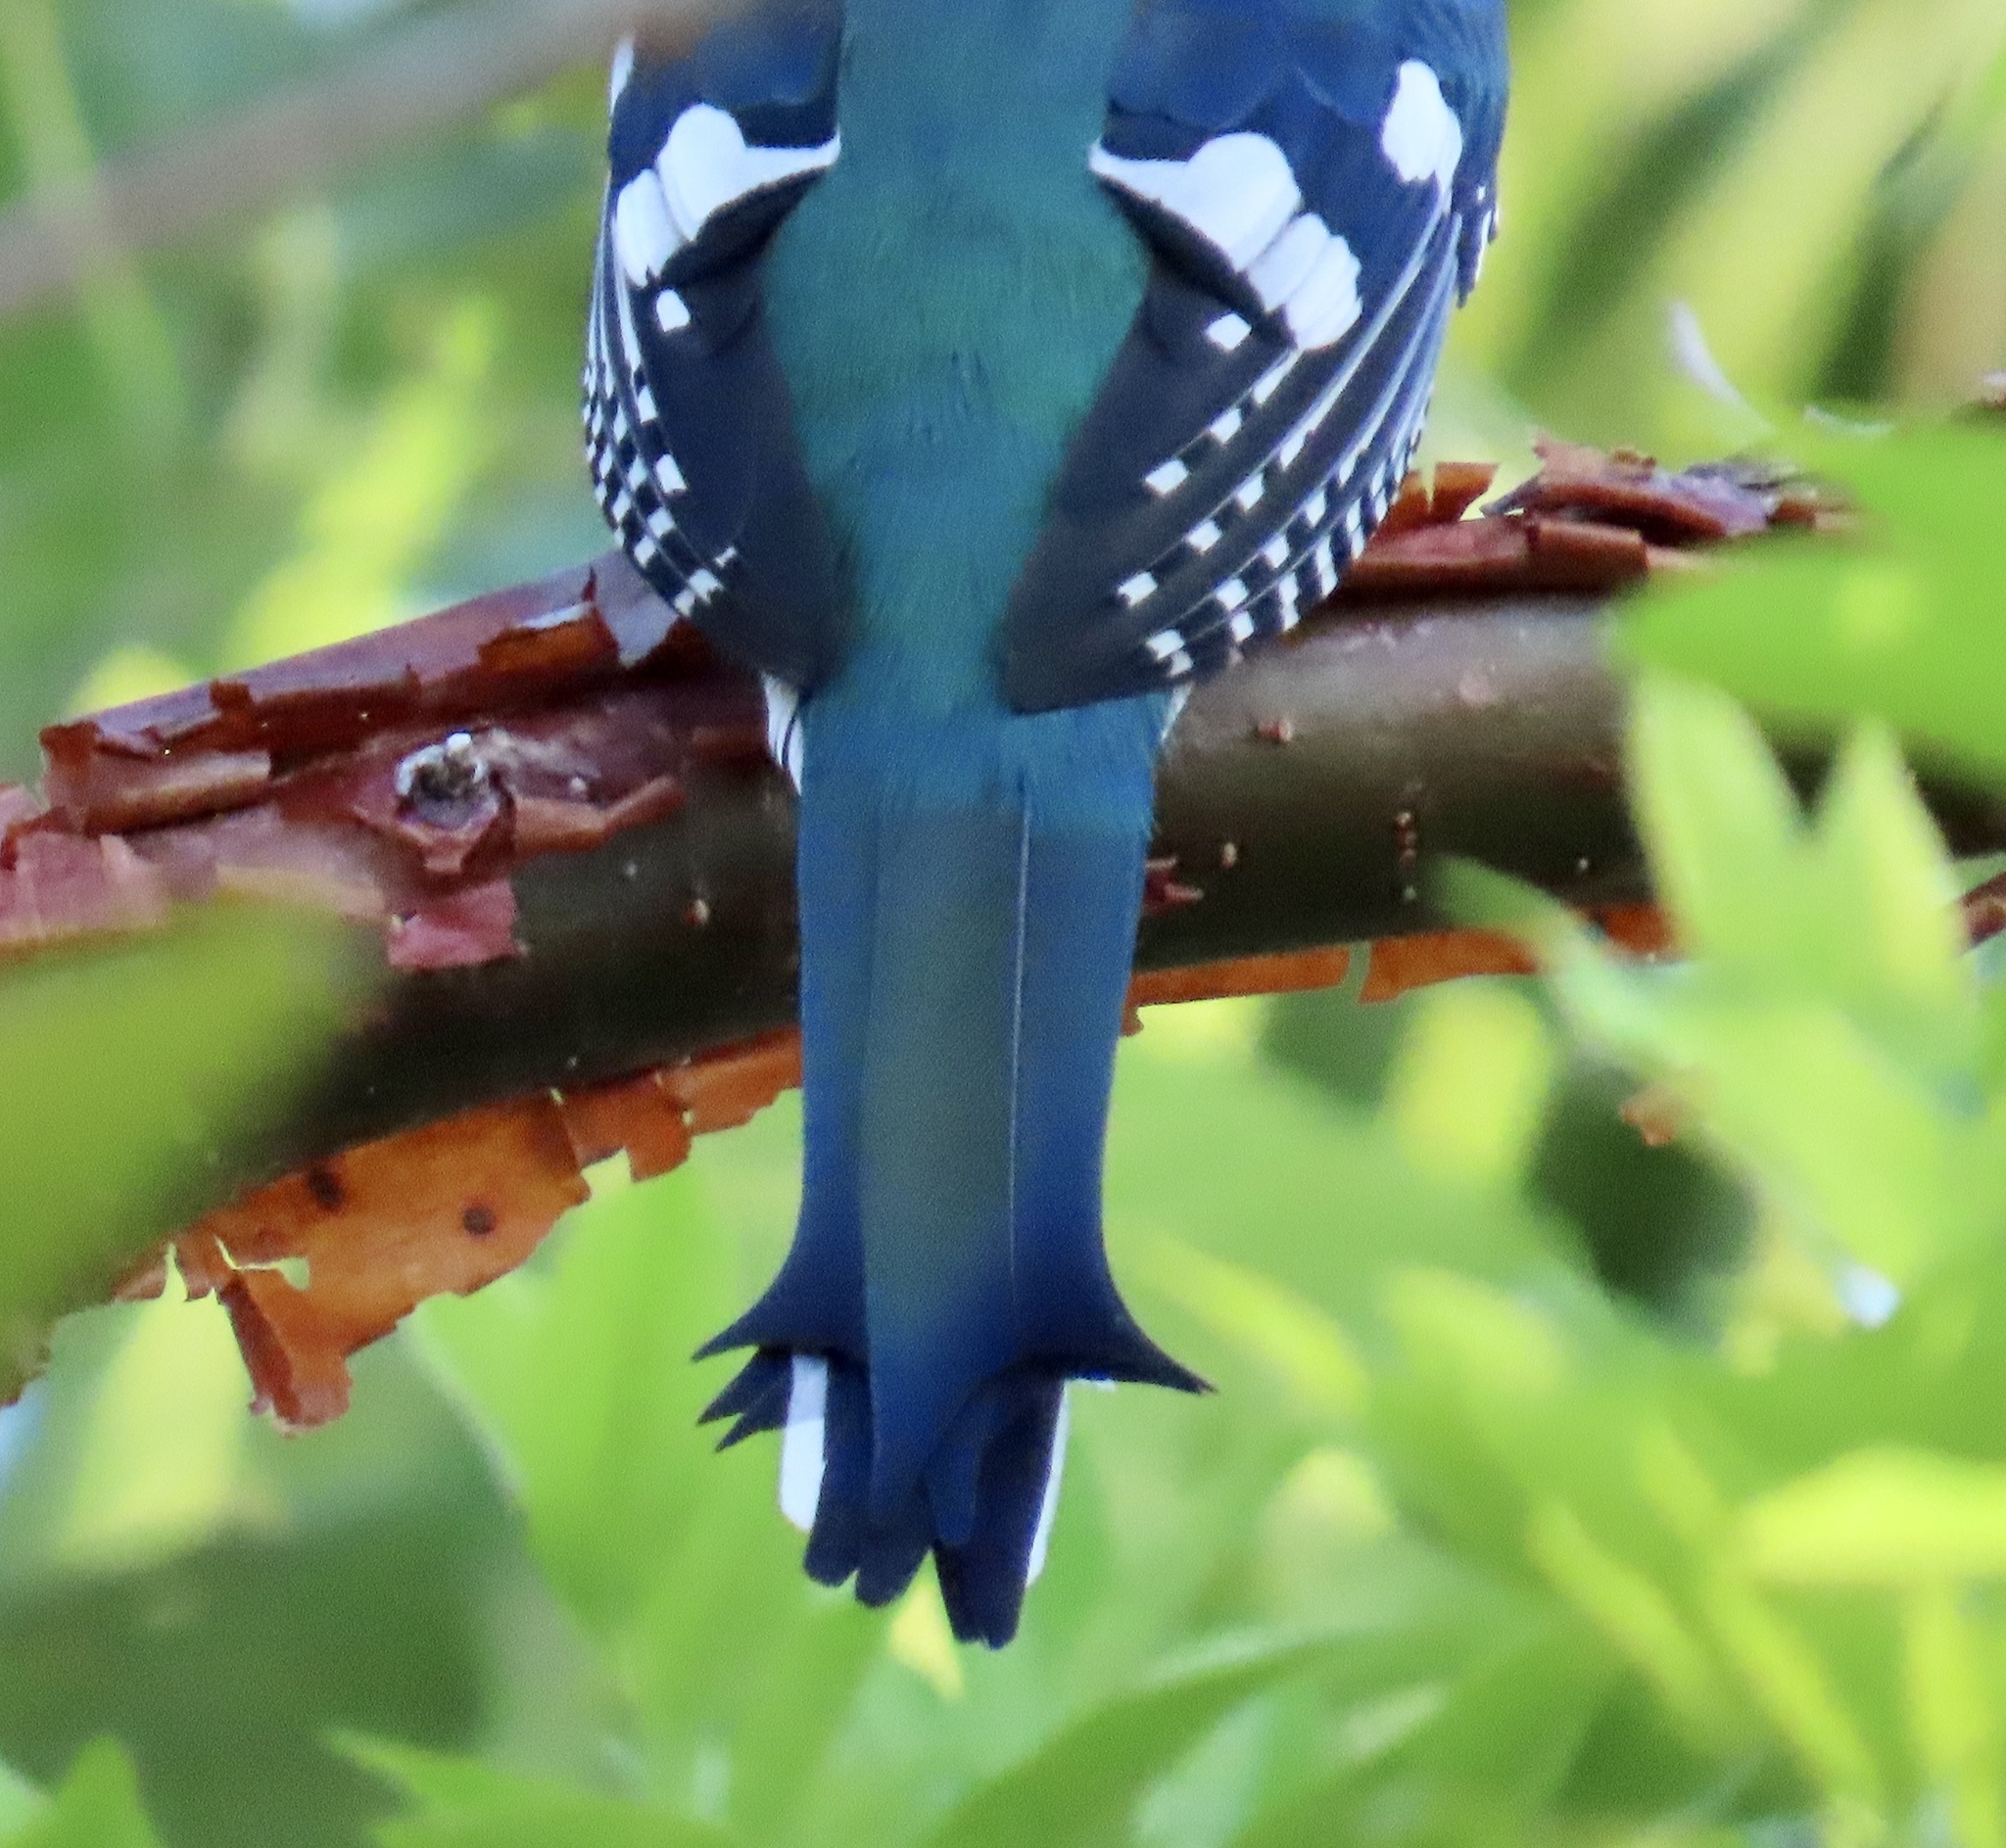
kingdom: Animalia
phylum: Chordata
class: Aves
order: Trogoniformes
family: Trogonidae
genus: Priotelus
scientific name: Priotelus temnurus
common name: Cuban trogon
